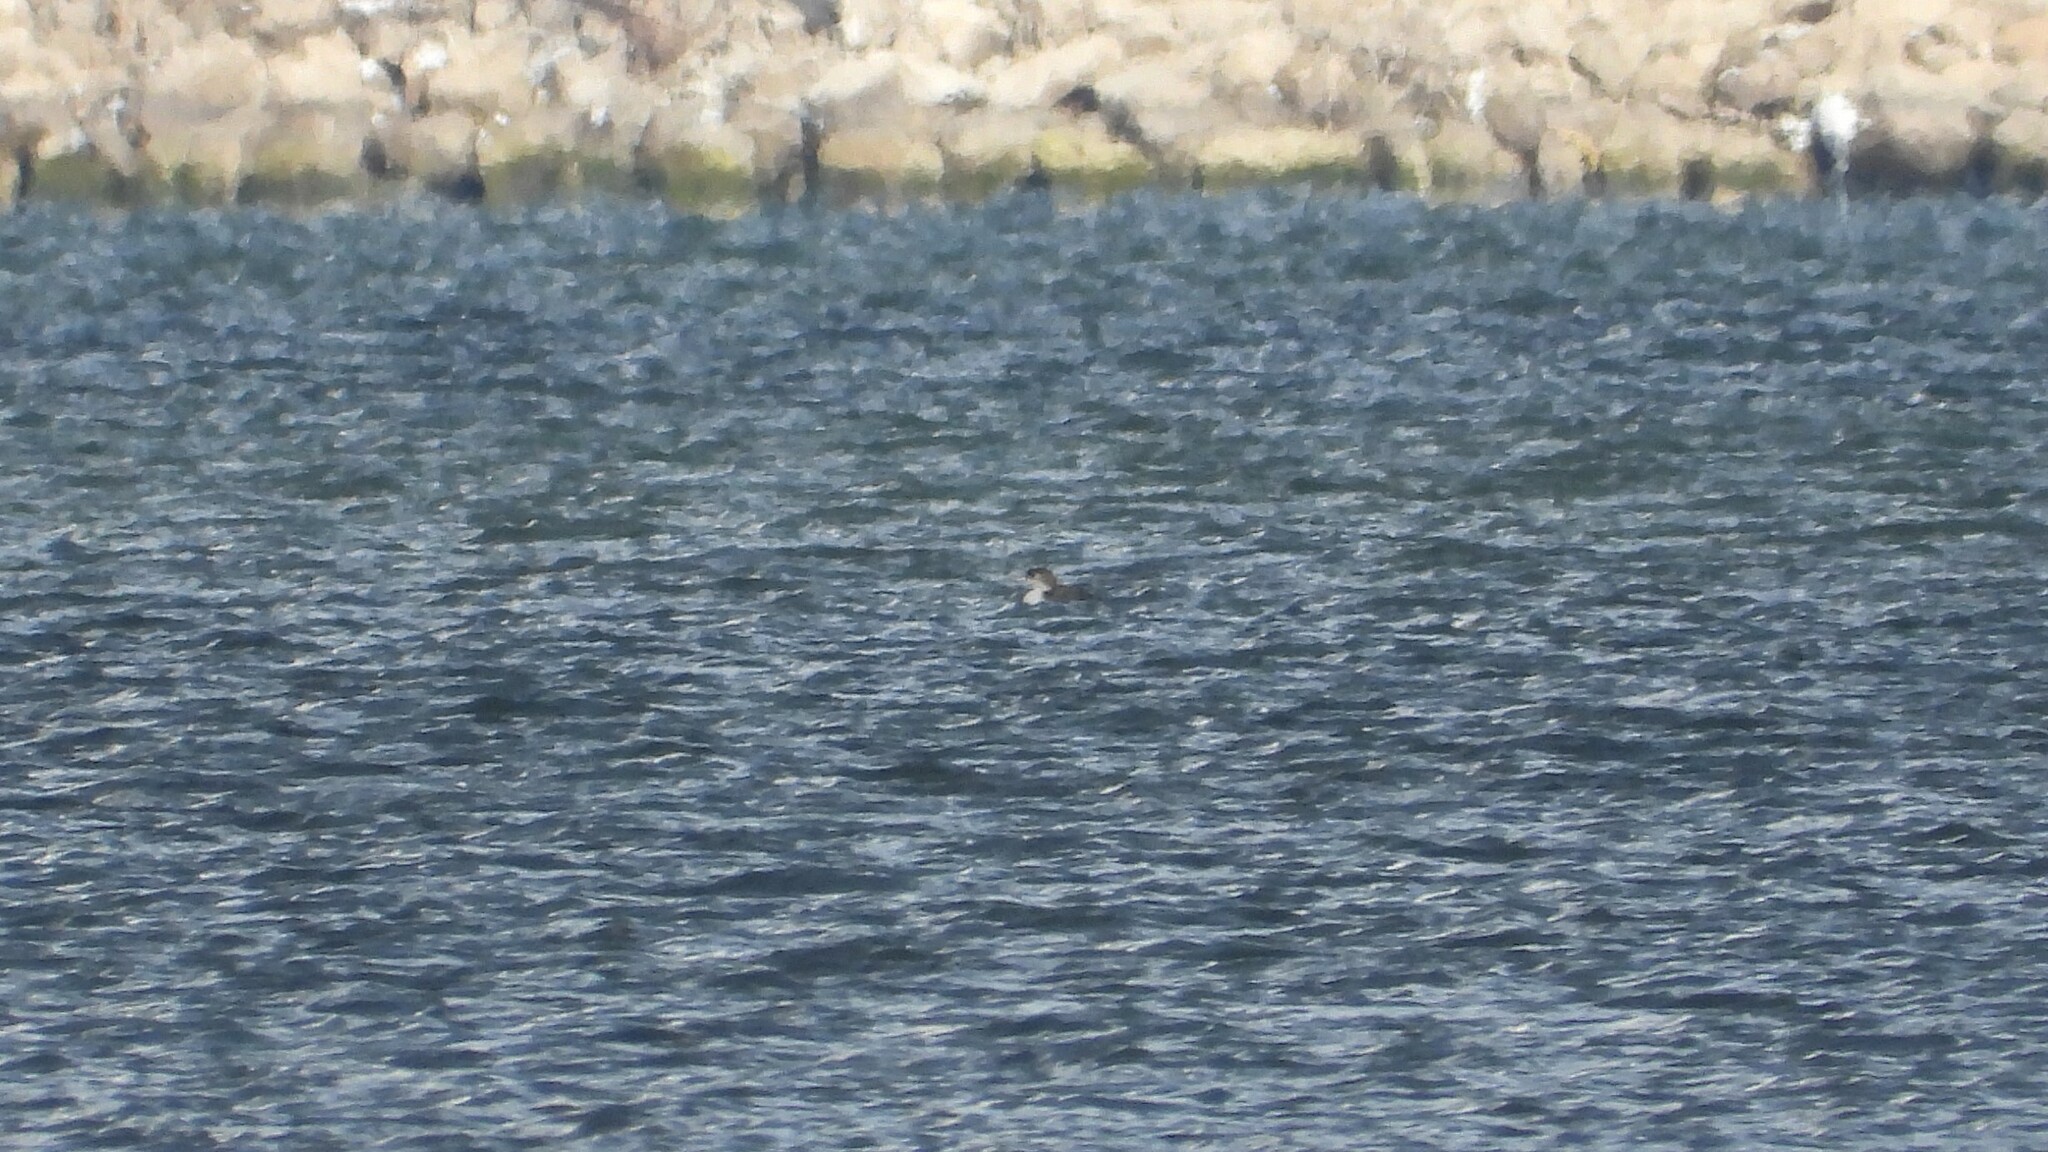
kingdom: Animalia
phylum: Chordata
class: Aves
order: Gaviiformes
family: Gaviidae
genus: Gavia
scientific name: Gavia pacifica
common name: Pacific loon
